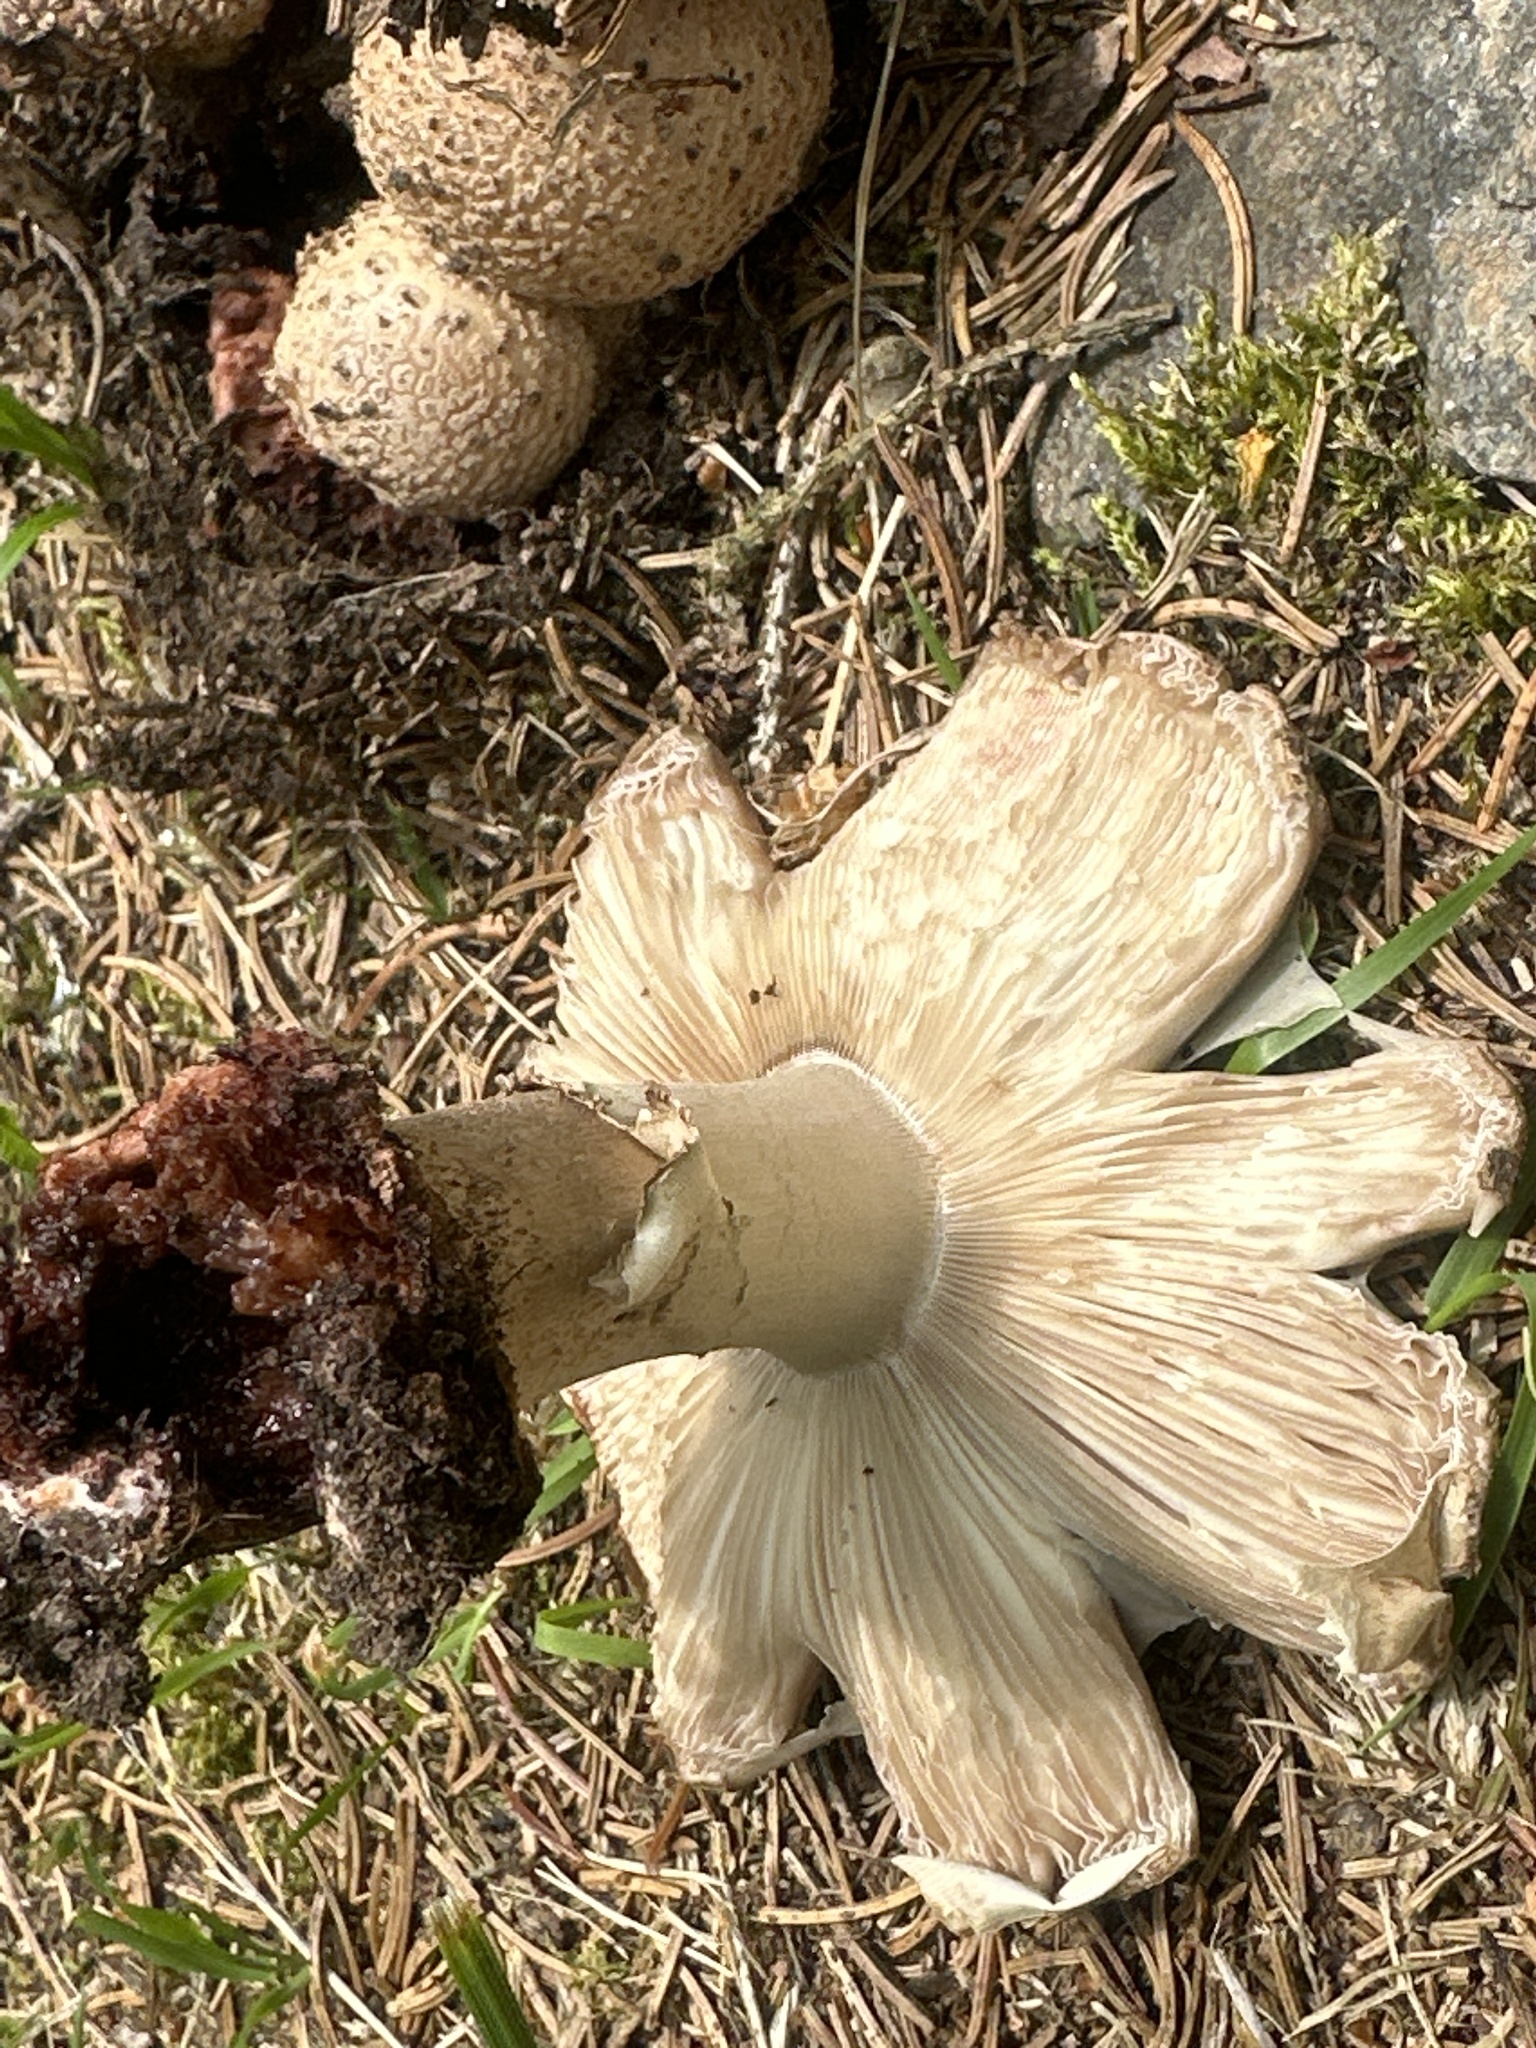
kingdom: Fungi
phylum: Basidiomycota
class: Agaricomycetes
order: Agaricales
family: Amanitaceae
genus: Amanita
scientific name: Amanita rubescens
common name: Blusher
